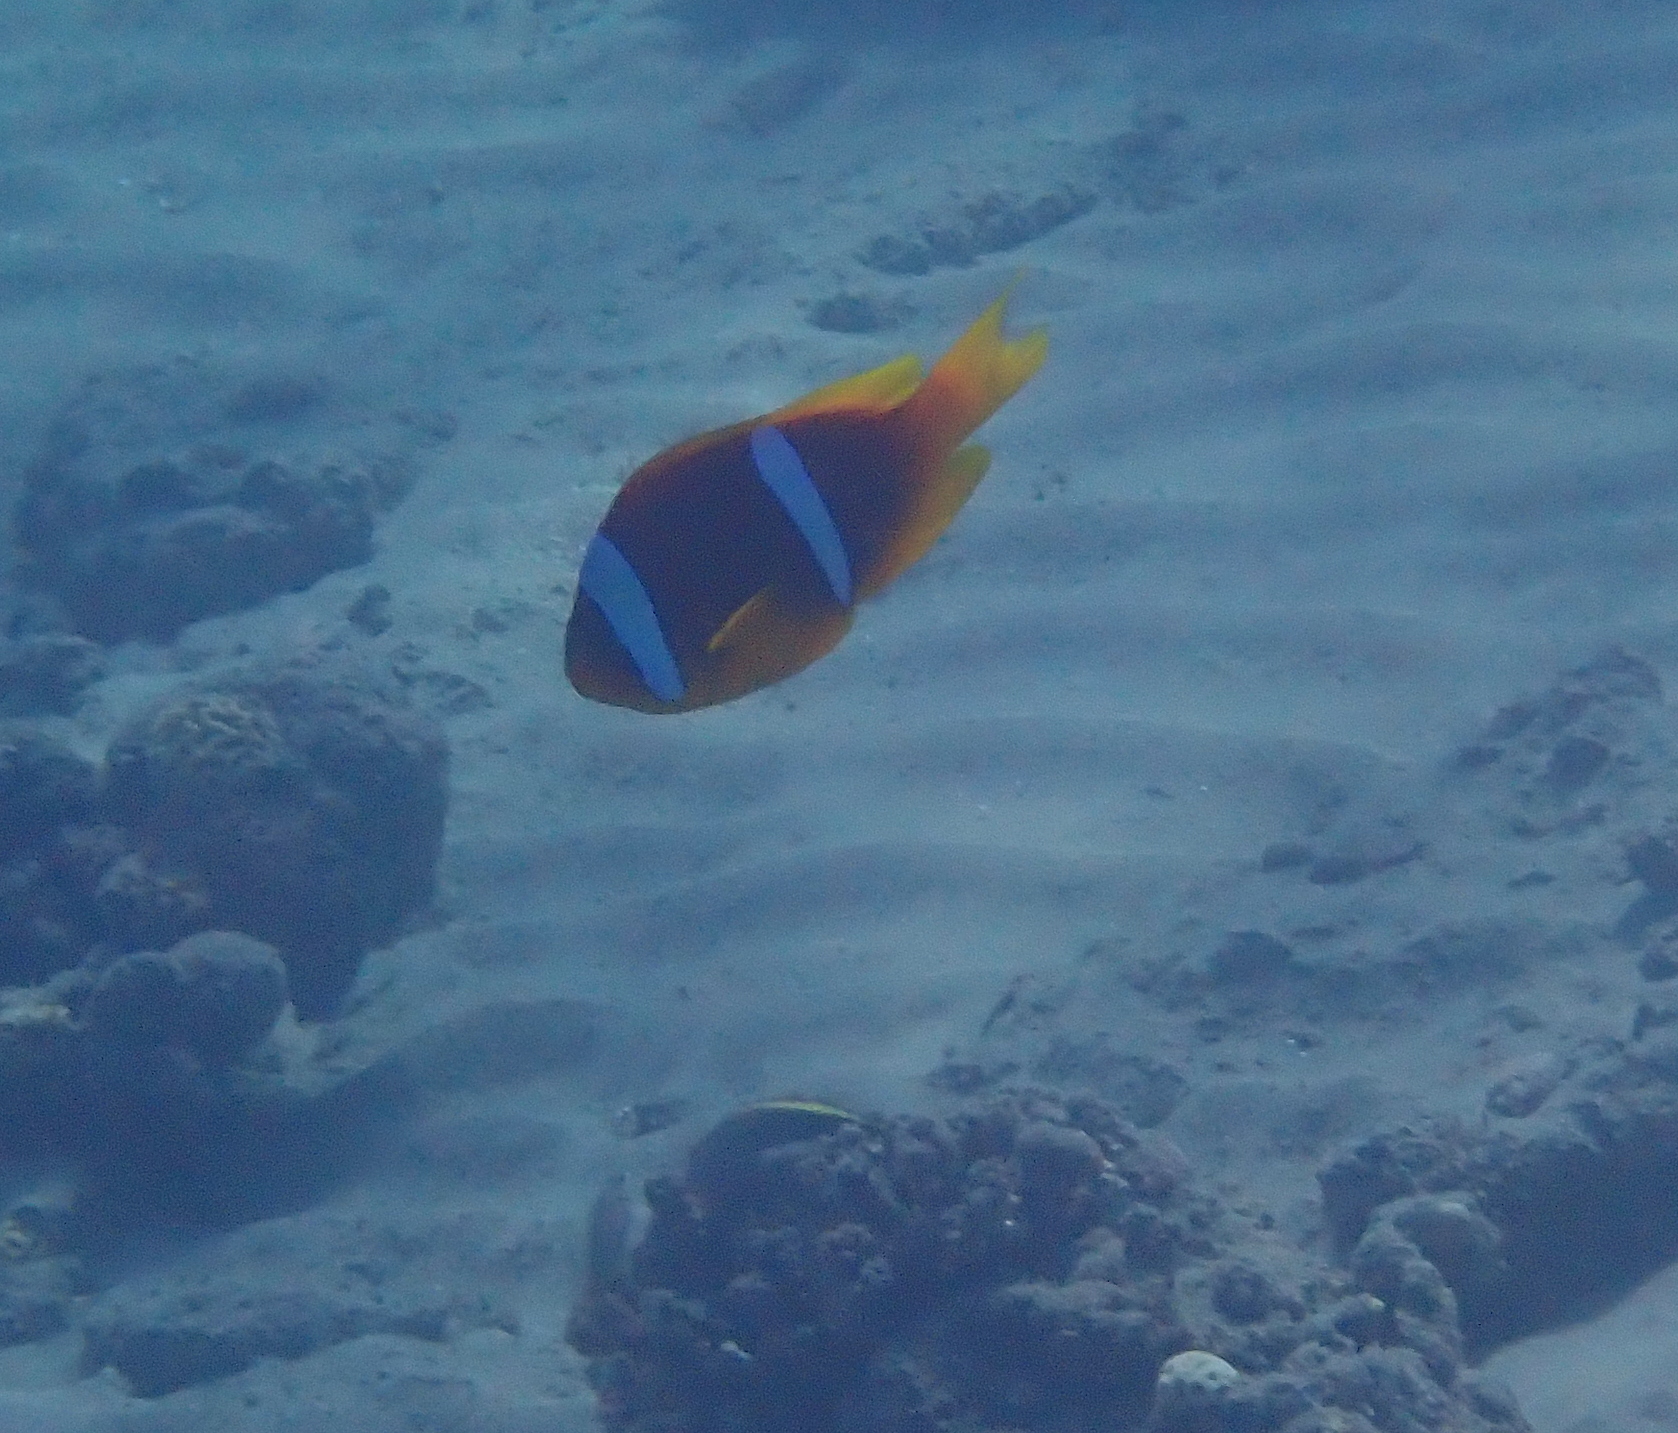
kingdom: Animalia
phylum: Chordata
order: Perciformes
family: Pomacentridae
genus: Amphiprion
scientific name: Amphiprion bicinctus
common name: Two-banded anemonefish
